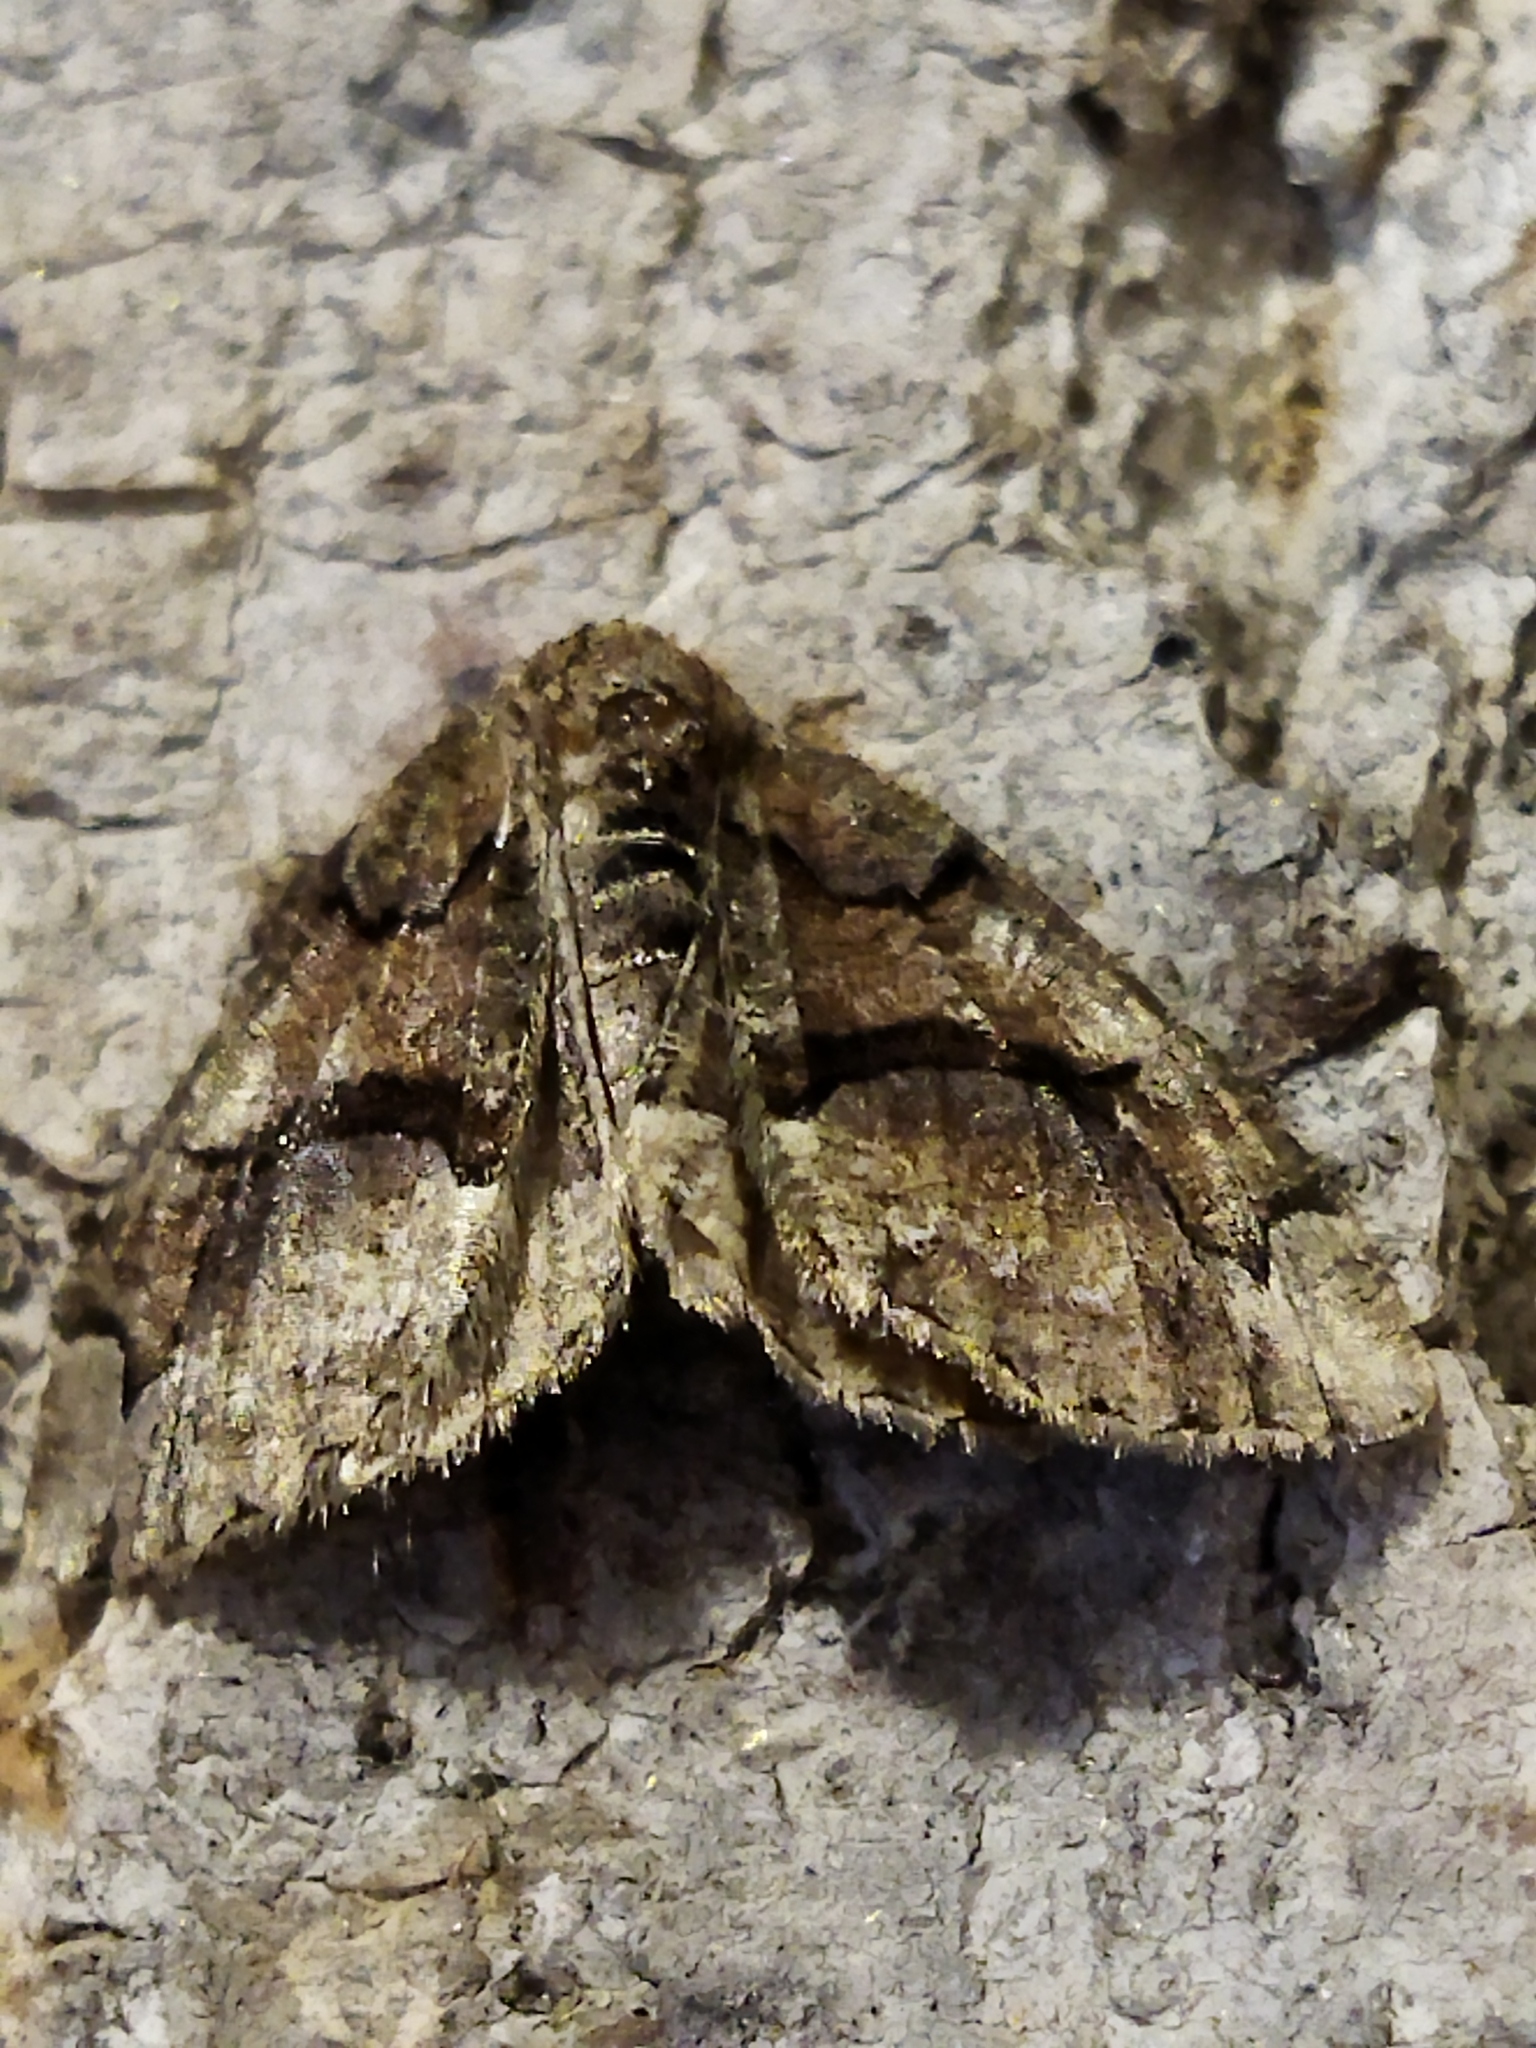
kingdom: Animalia
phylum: Arthropoda
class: Insecta
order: Lepidoptera
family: Geometridae
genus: Asovia
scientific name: Asovia maeoticaria
